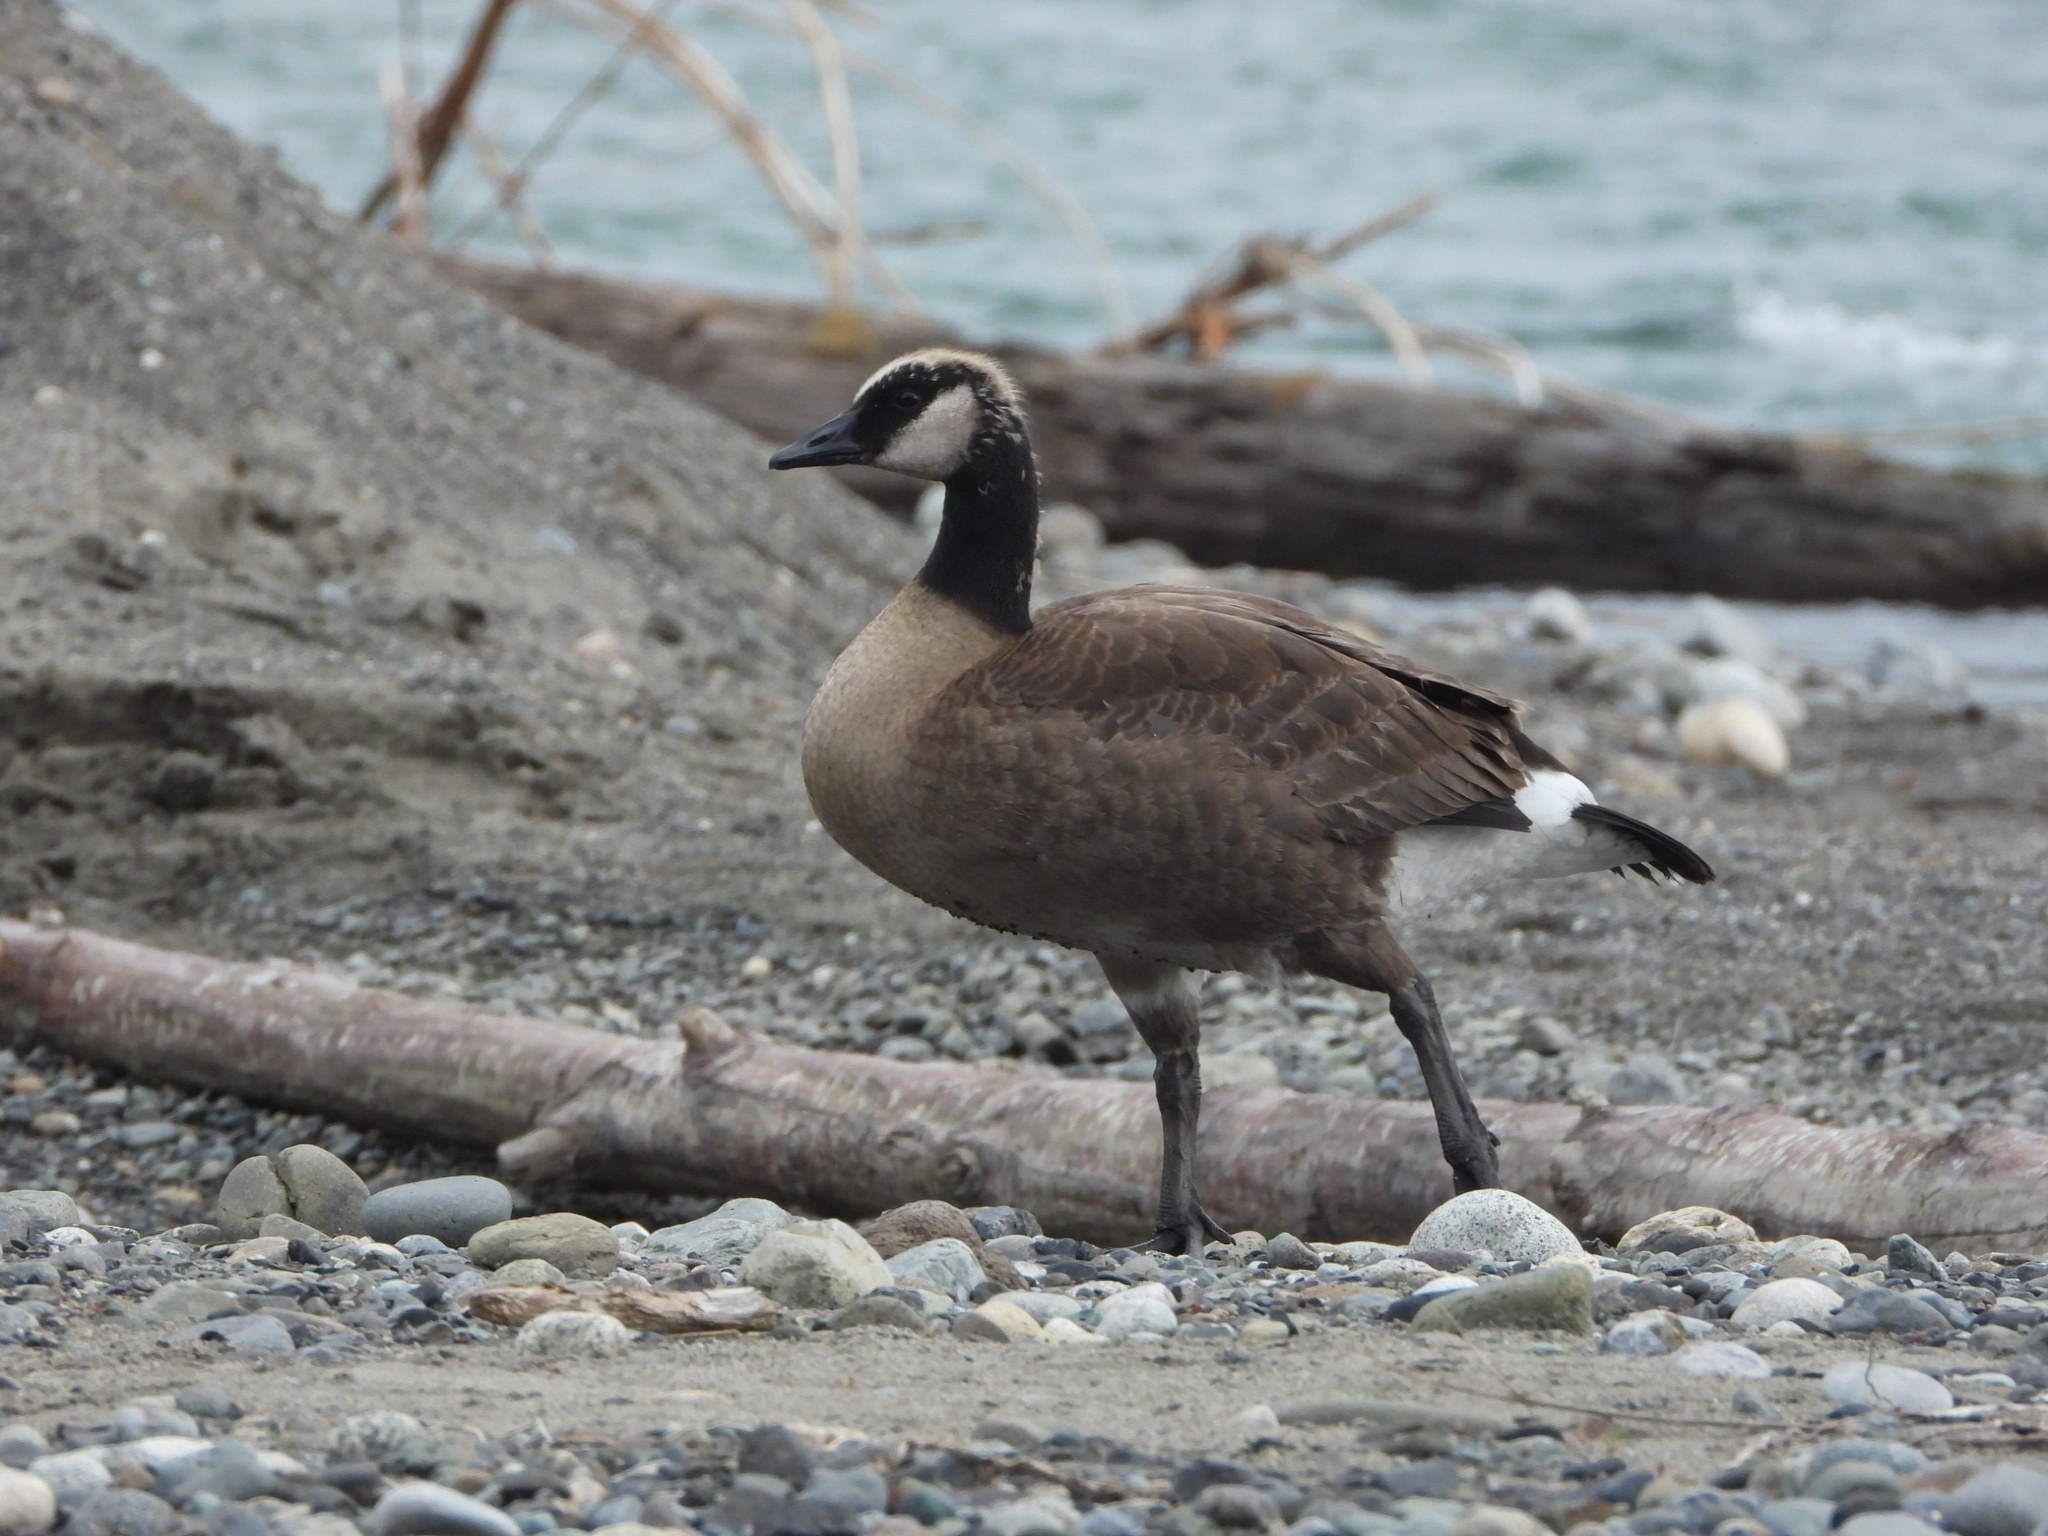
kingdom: Animalia
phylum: Chordata
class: Aves
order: Anseriformes
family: Anatidae
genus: Branta
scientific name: Branta canadensis
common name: Canada goose
